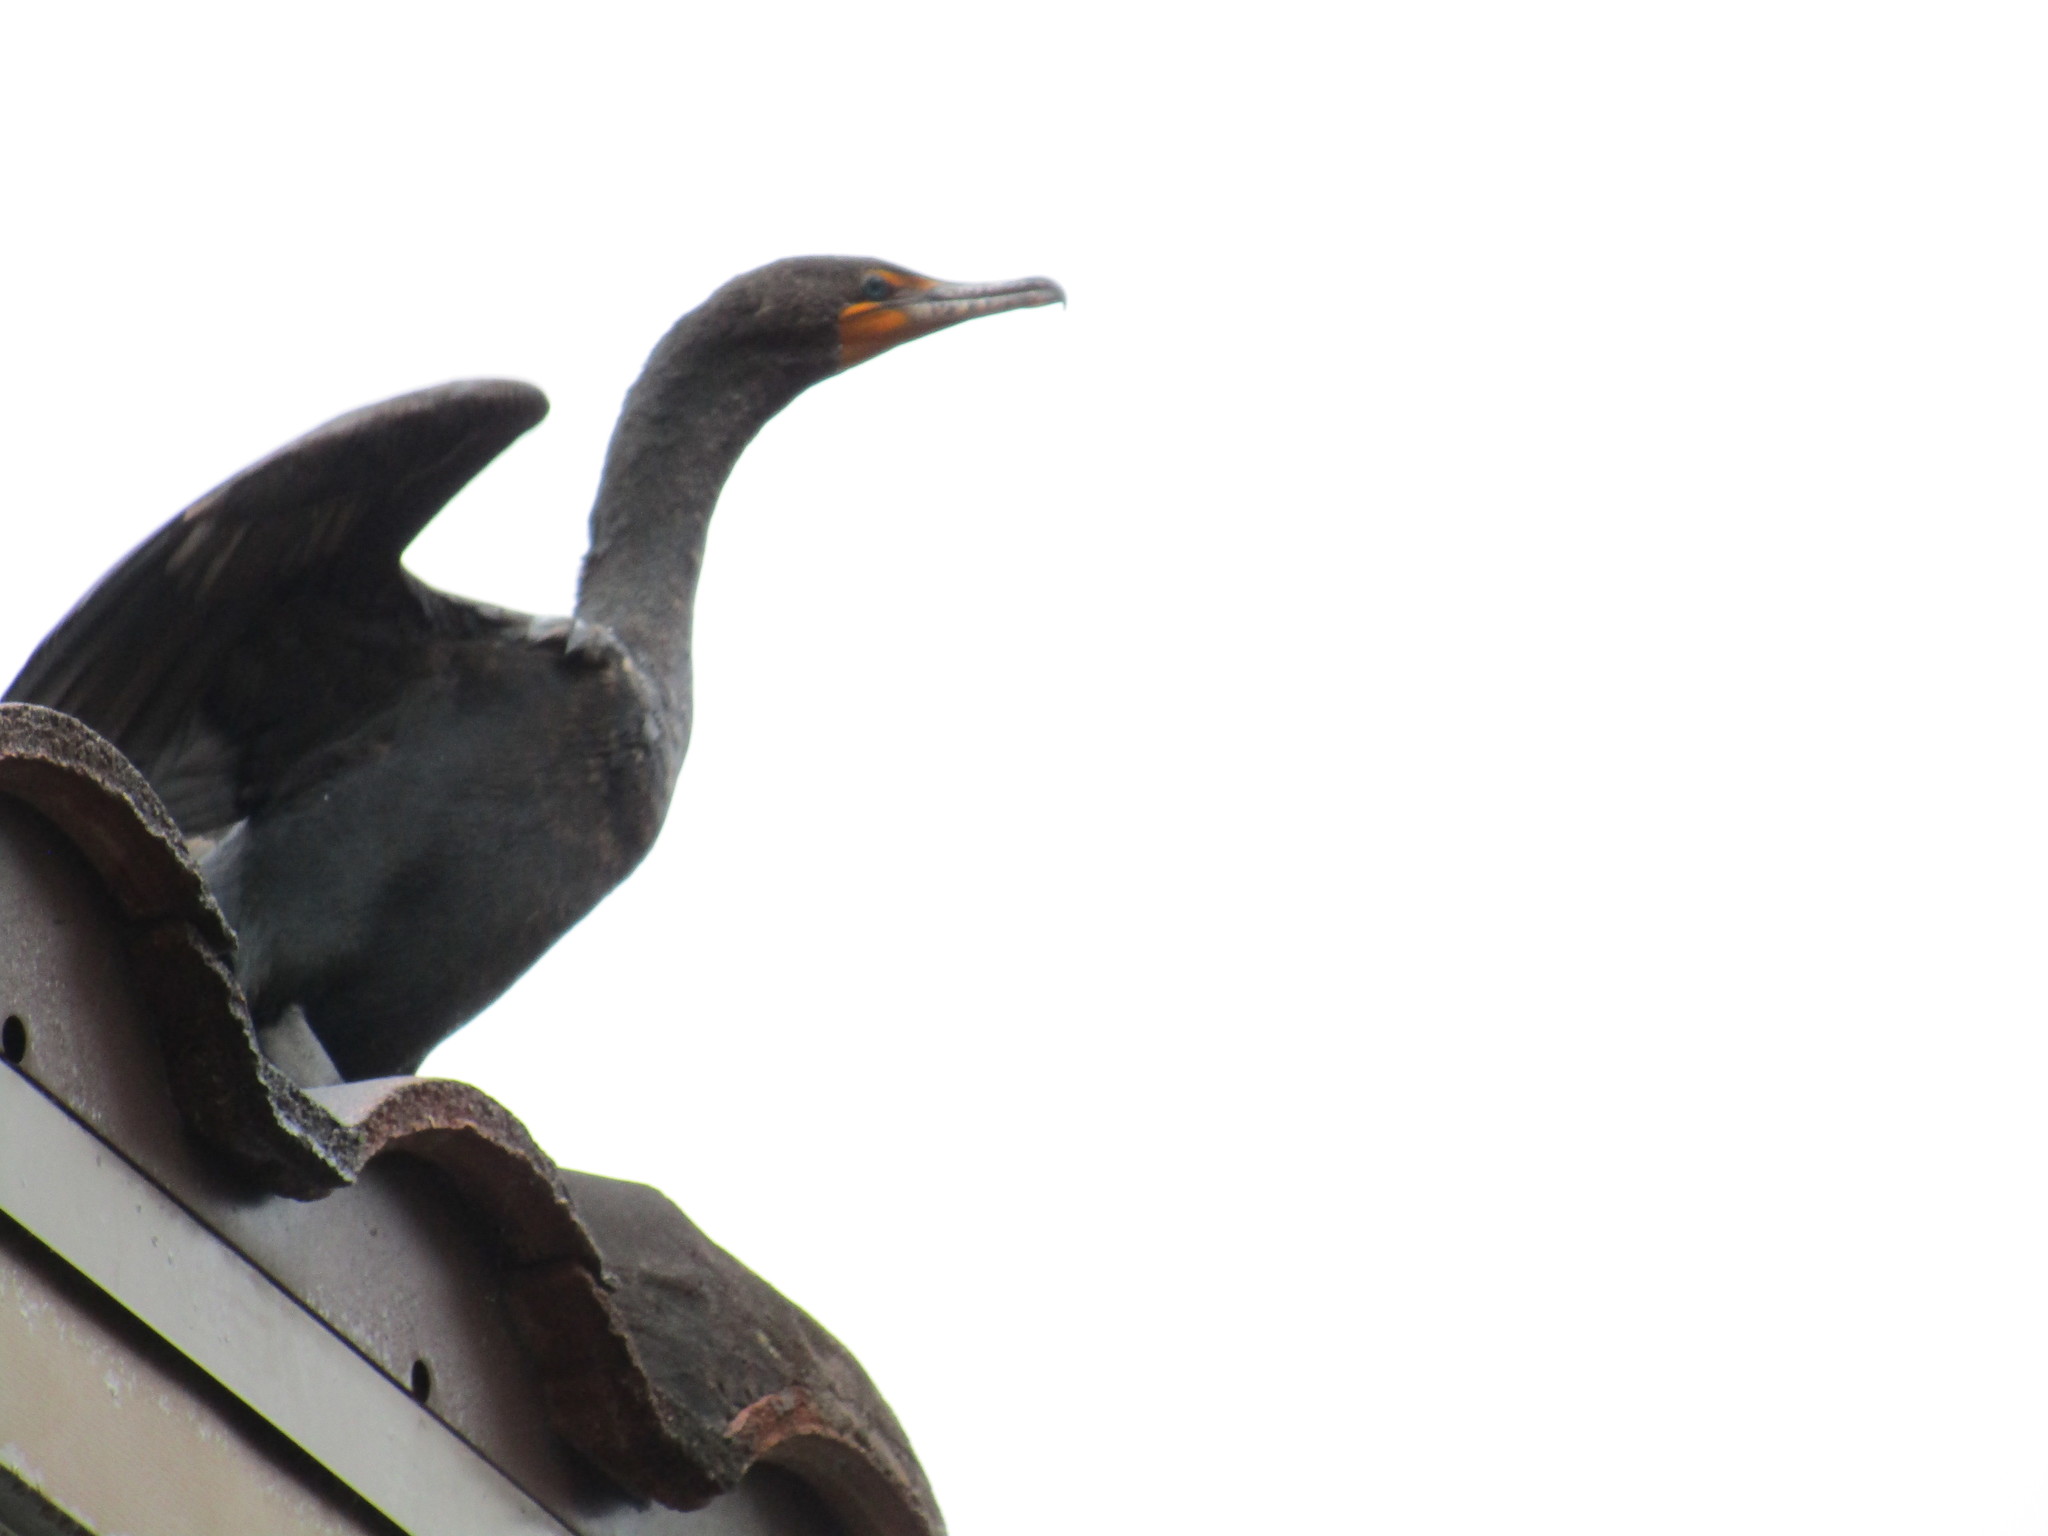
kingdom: Animalia
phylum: Chordata
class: Aves
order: Suliformes
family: Phalacrocoracidae
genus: Phalacrocorax
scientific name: Phalacrocorax auritus
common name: Double-crested cormorant
